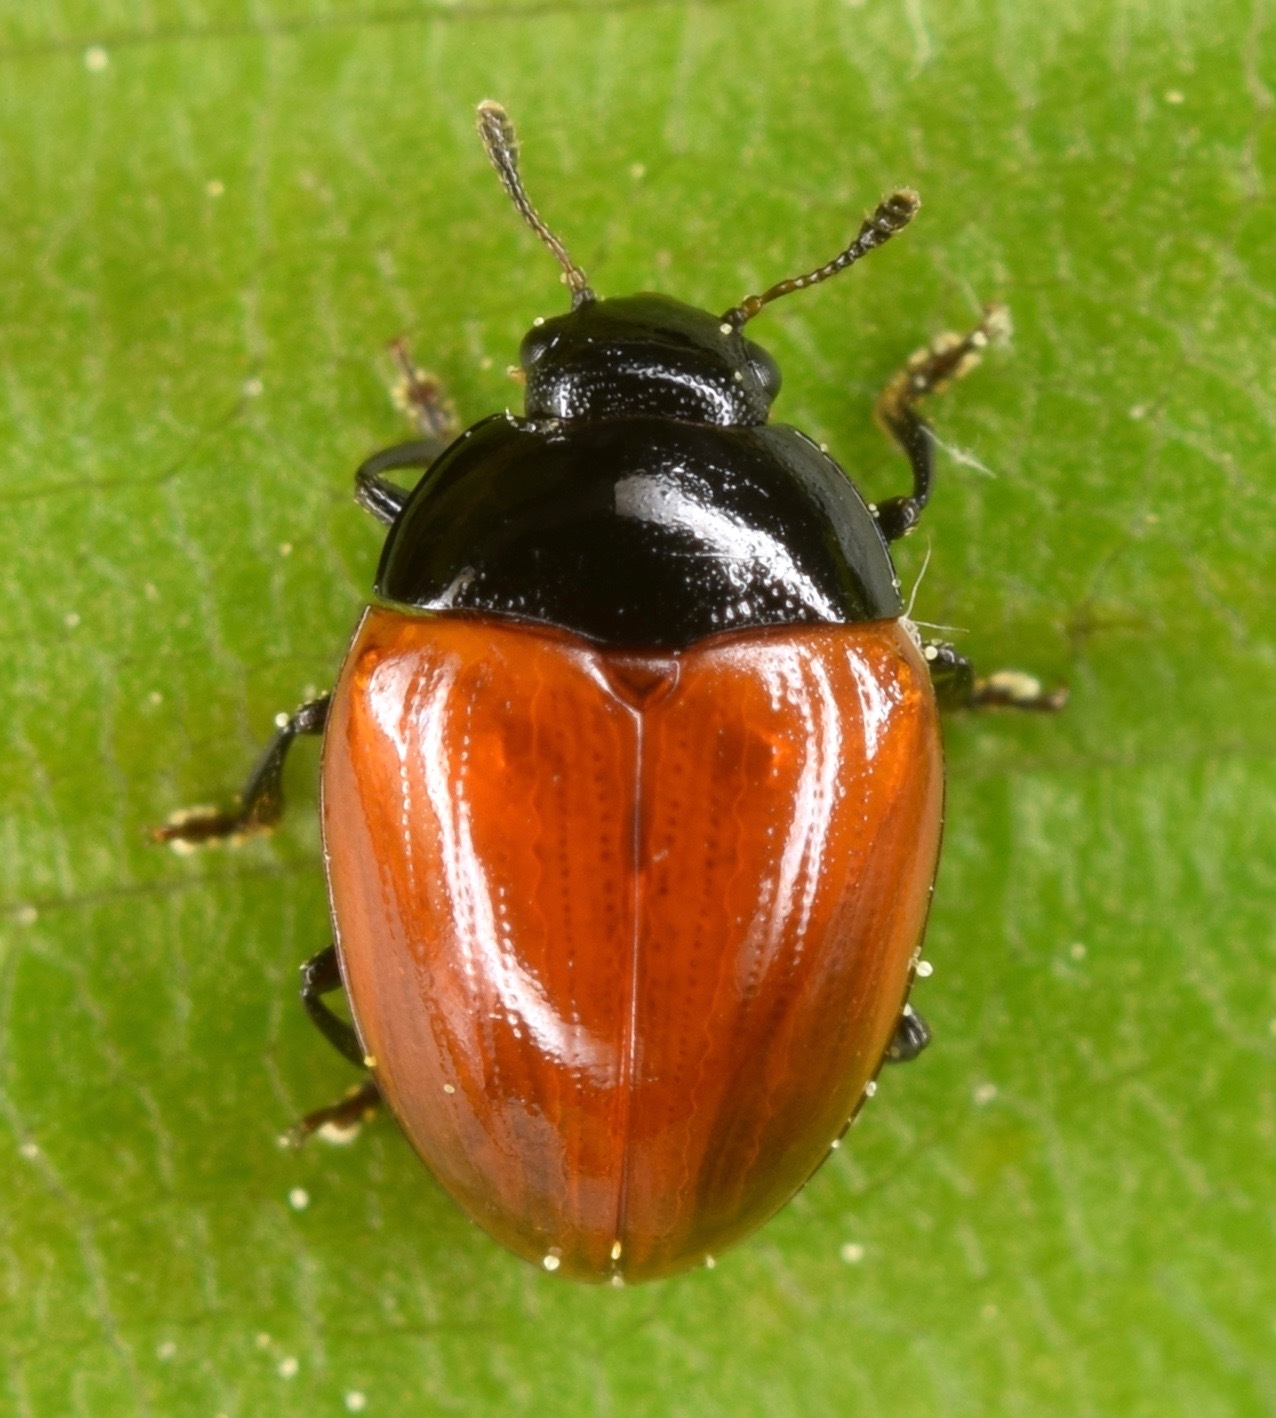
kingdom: Animalia
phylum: Arthropoda
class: Insecta
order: Coleoptera
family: Erotylidae
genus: Tritoma
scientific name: Tritoma sanguinipennis
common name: Red-winged tritoma
